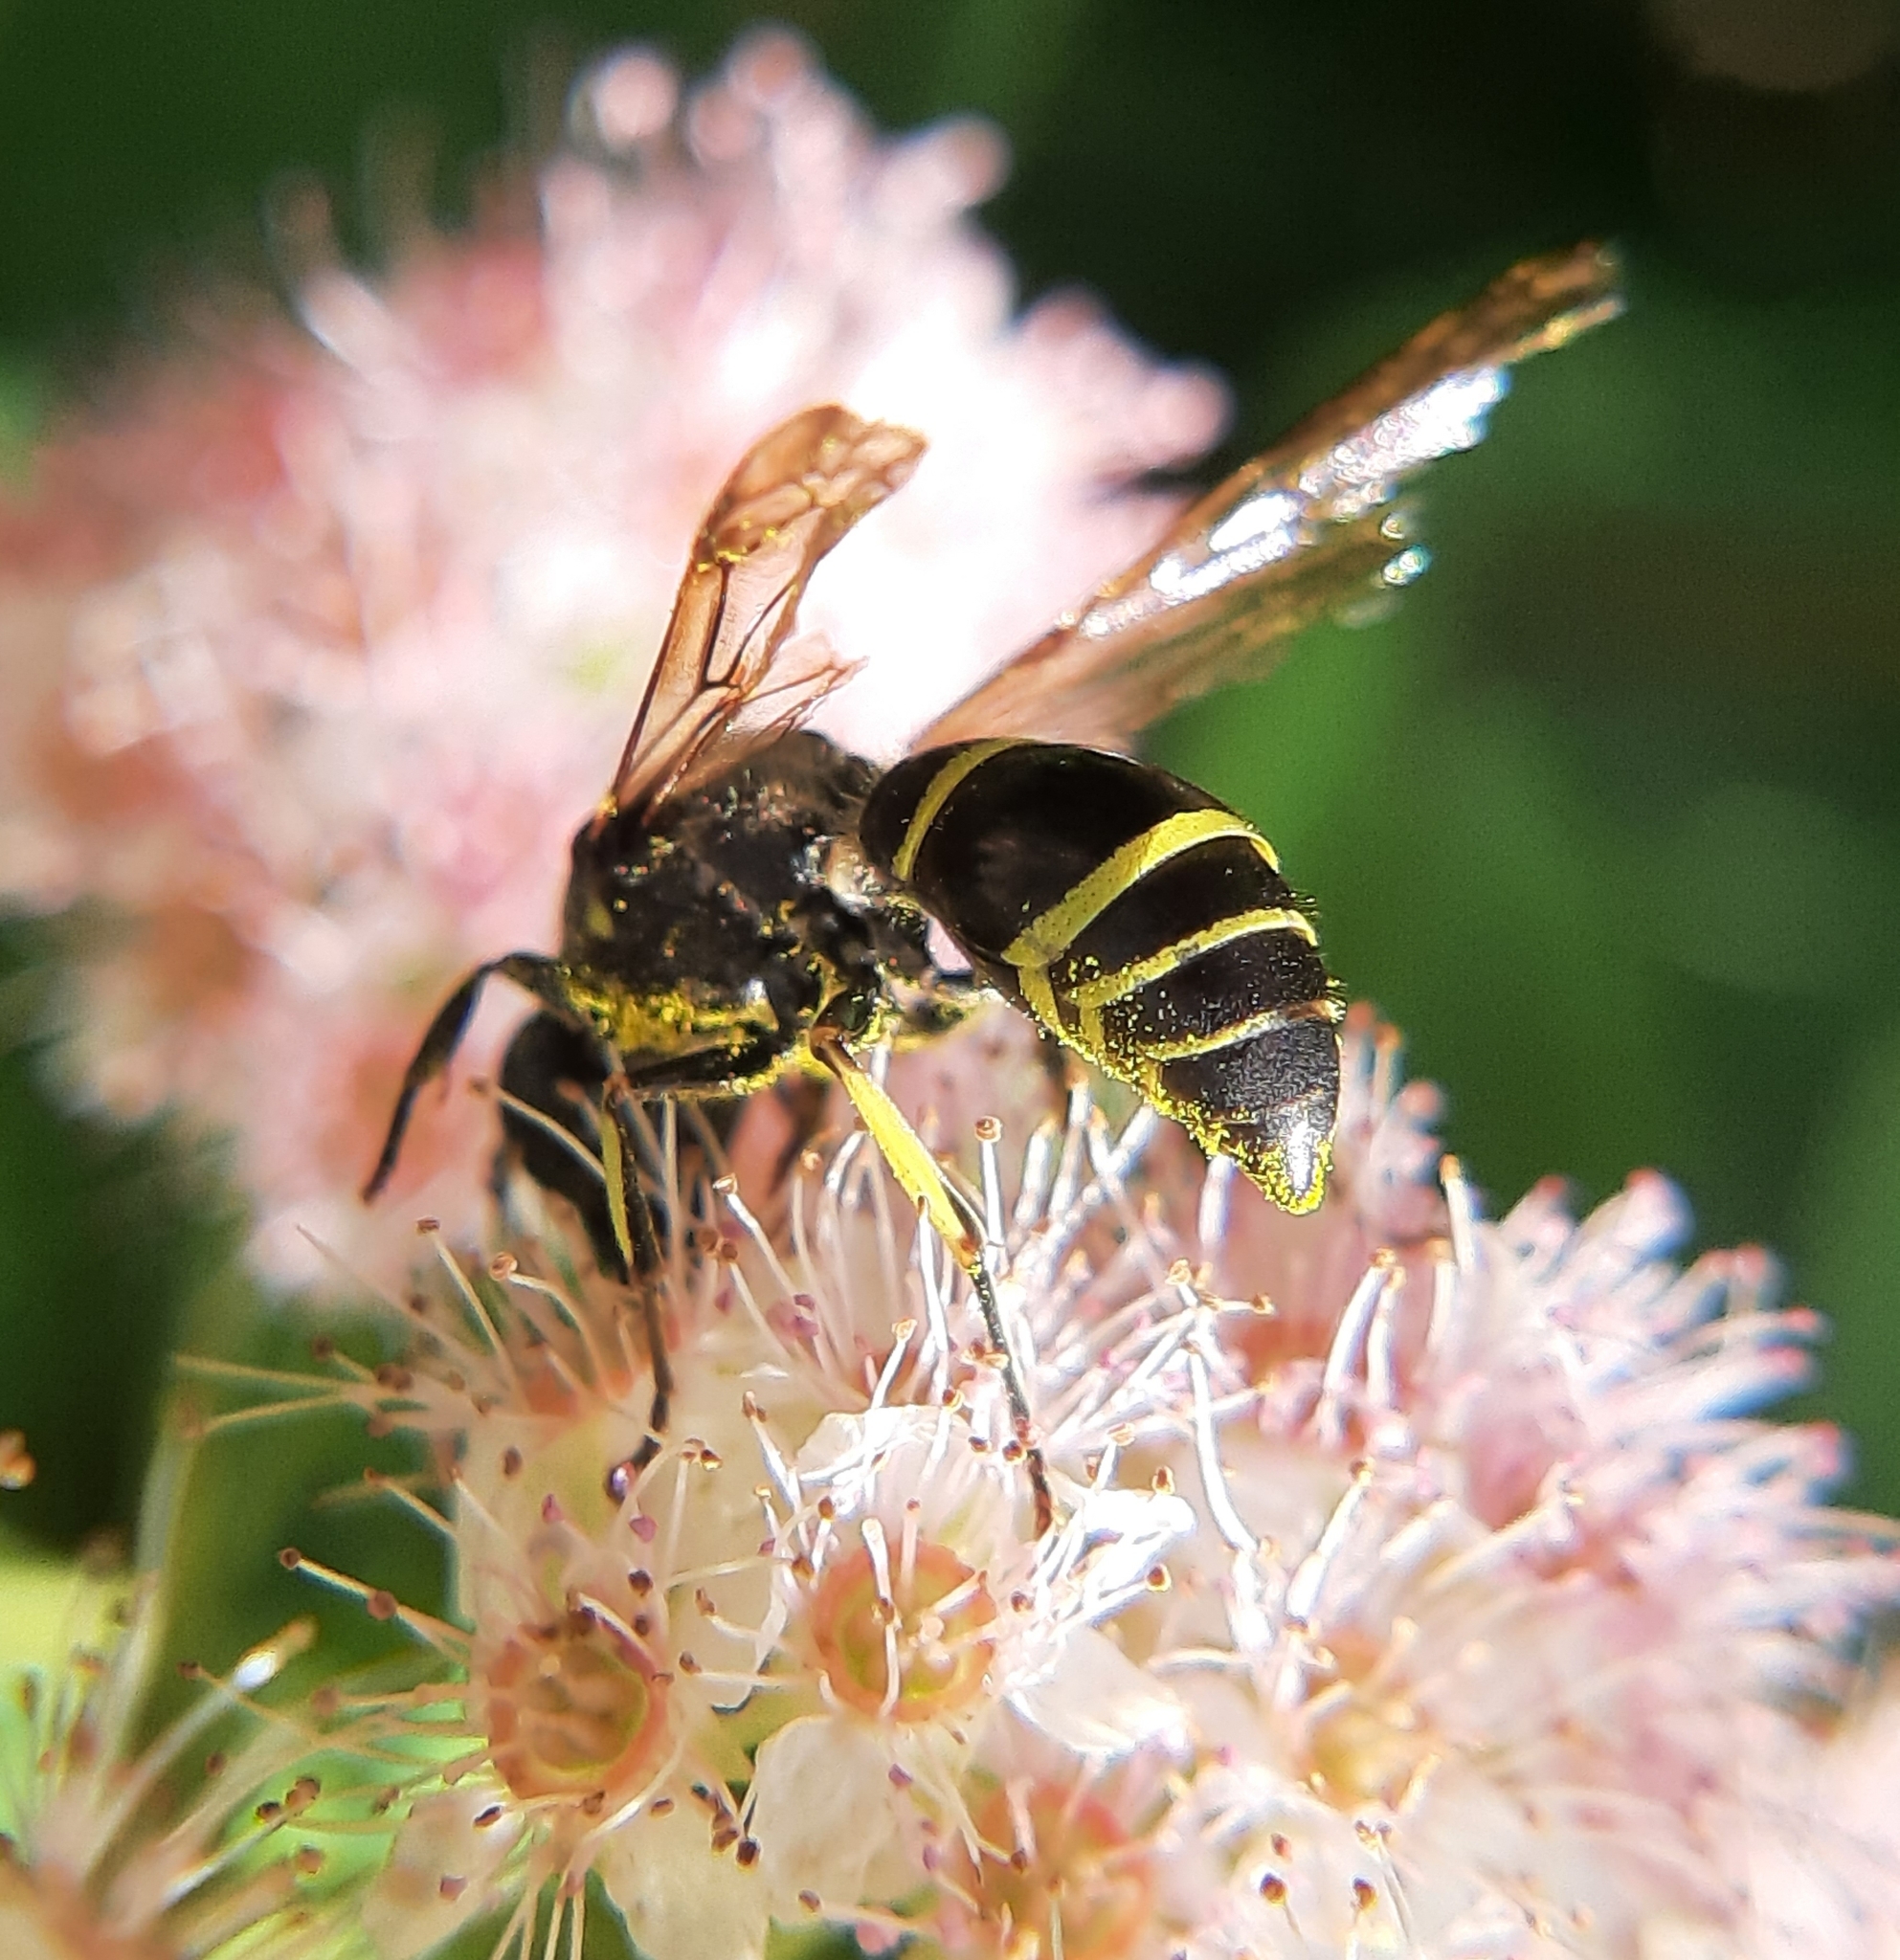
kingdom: Animalia
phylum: Arthropoda
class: Insecta
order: Hymenoptera
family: Vespidae
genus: Ancistrocerus
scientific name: Ancistrocerus
